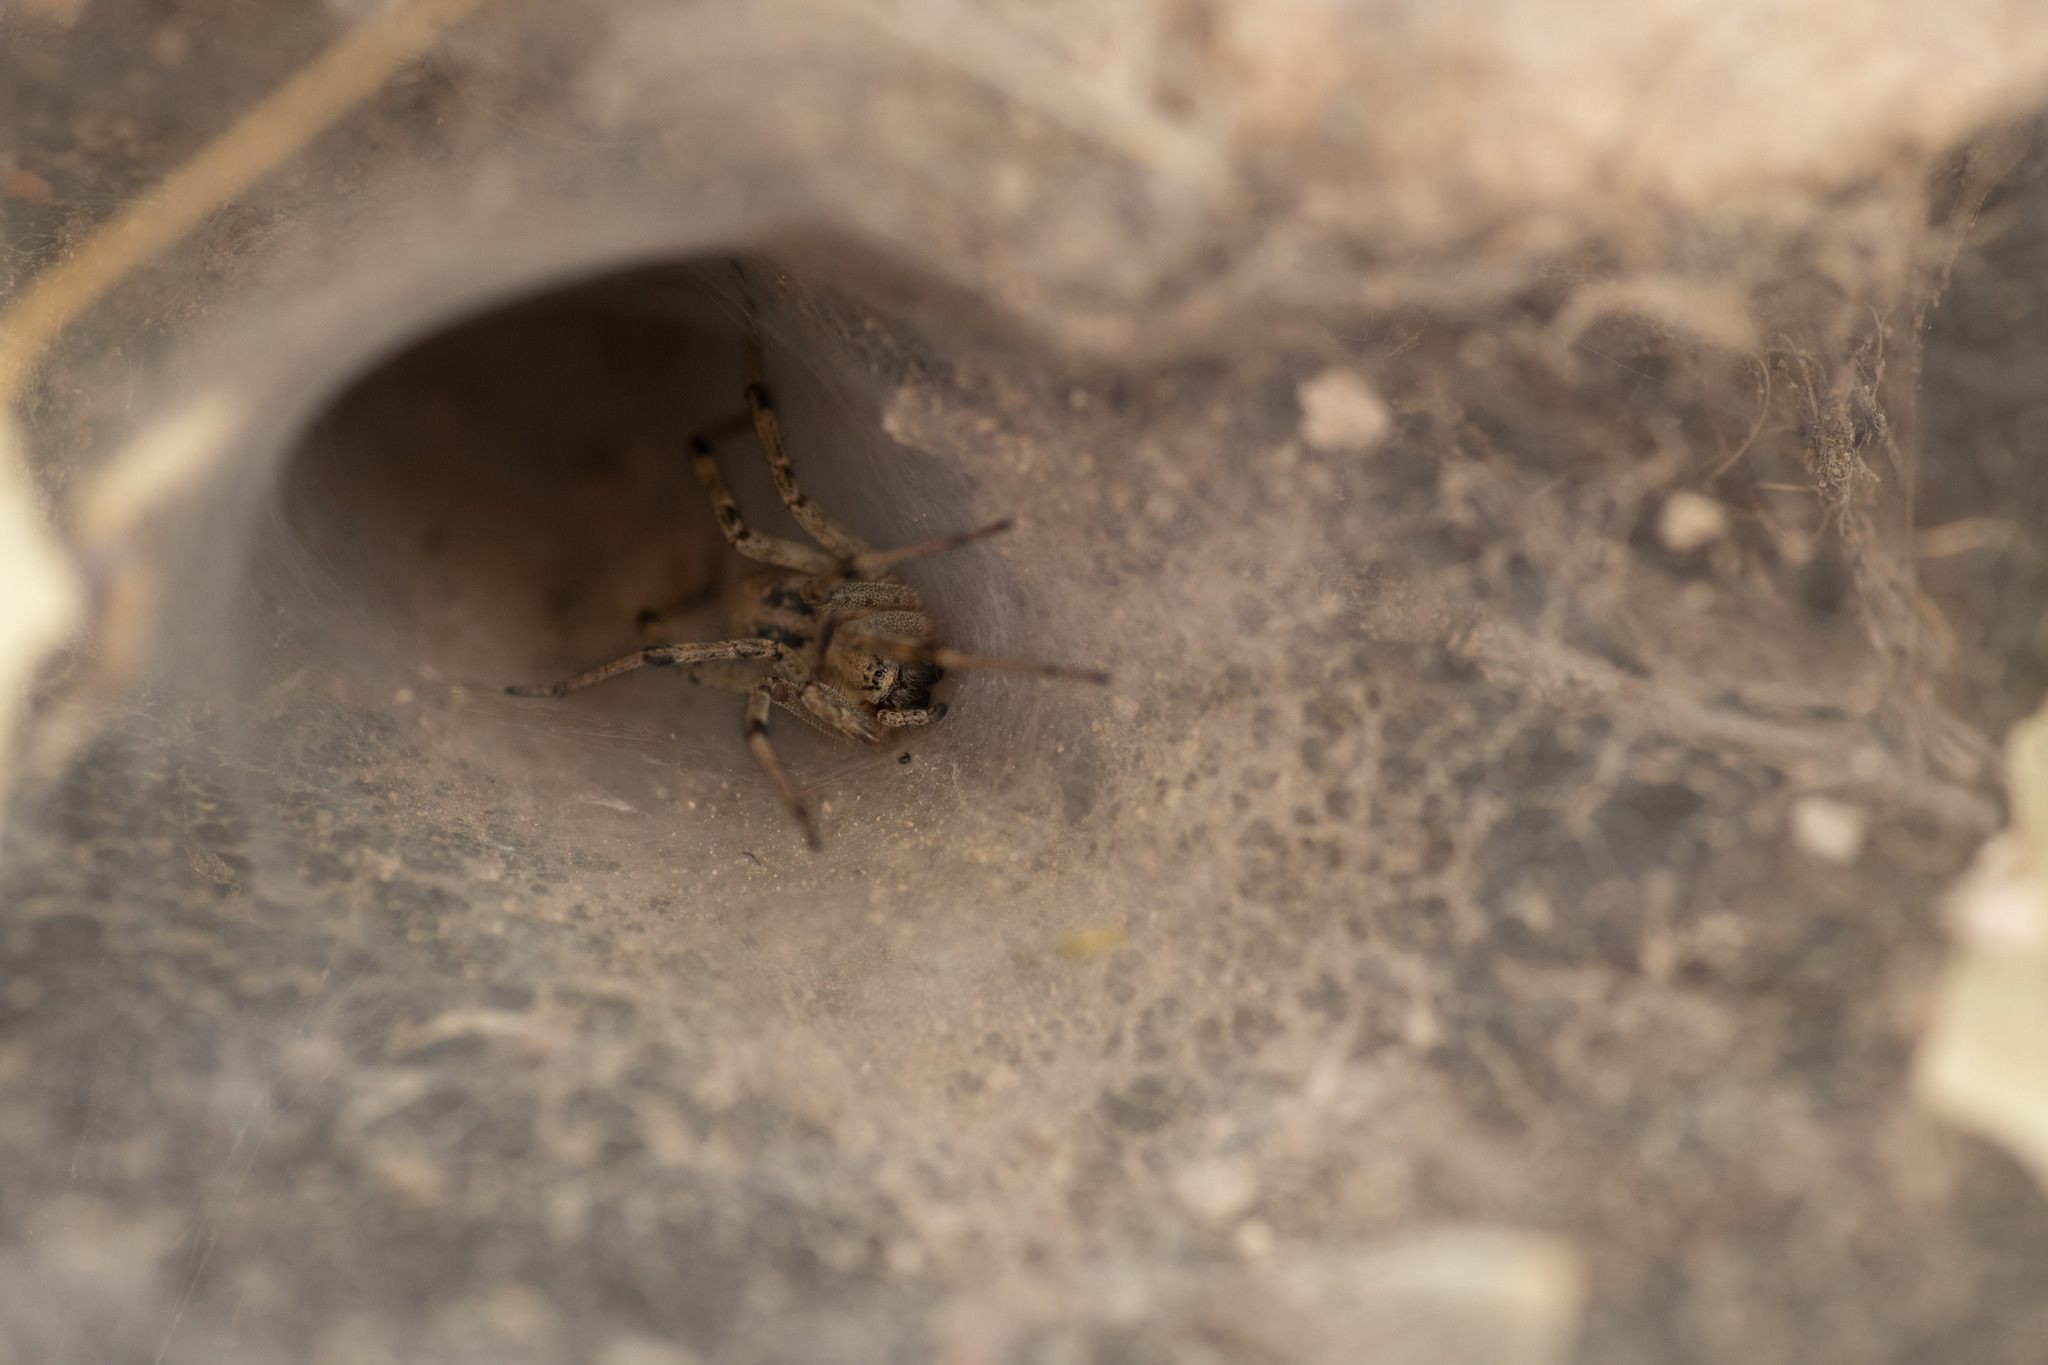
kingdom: Animalia
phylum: Arthropoda
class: Arachnida
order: Araneae
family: Agelenidae
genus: Agelena
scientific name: Agelena orientalis
